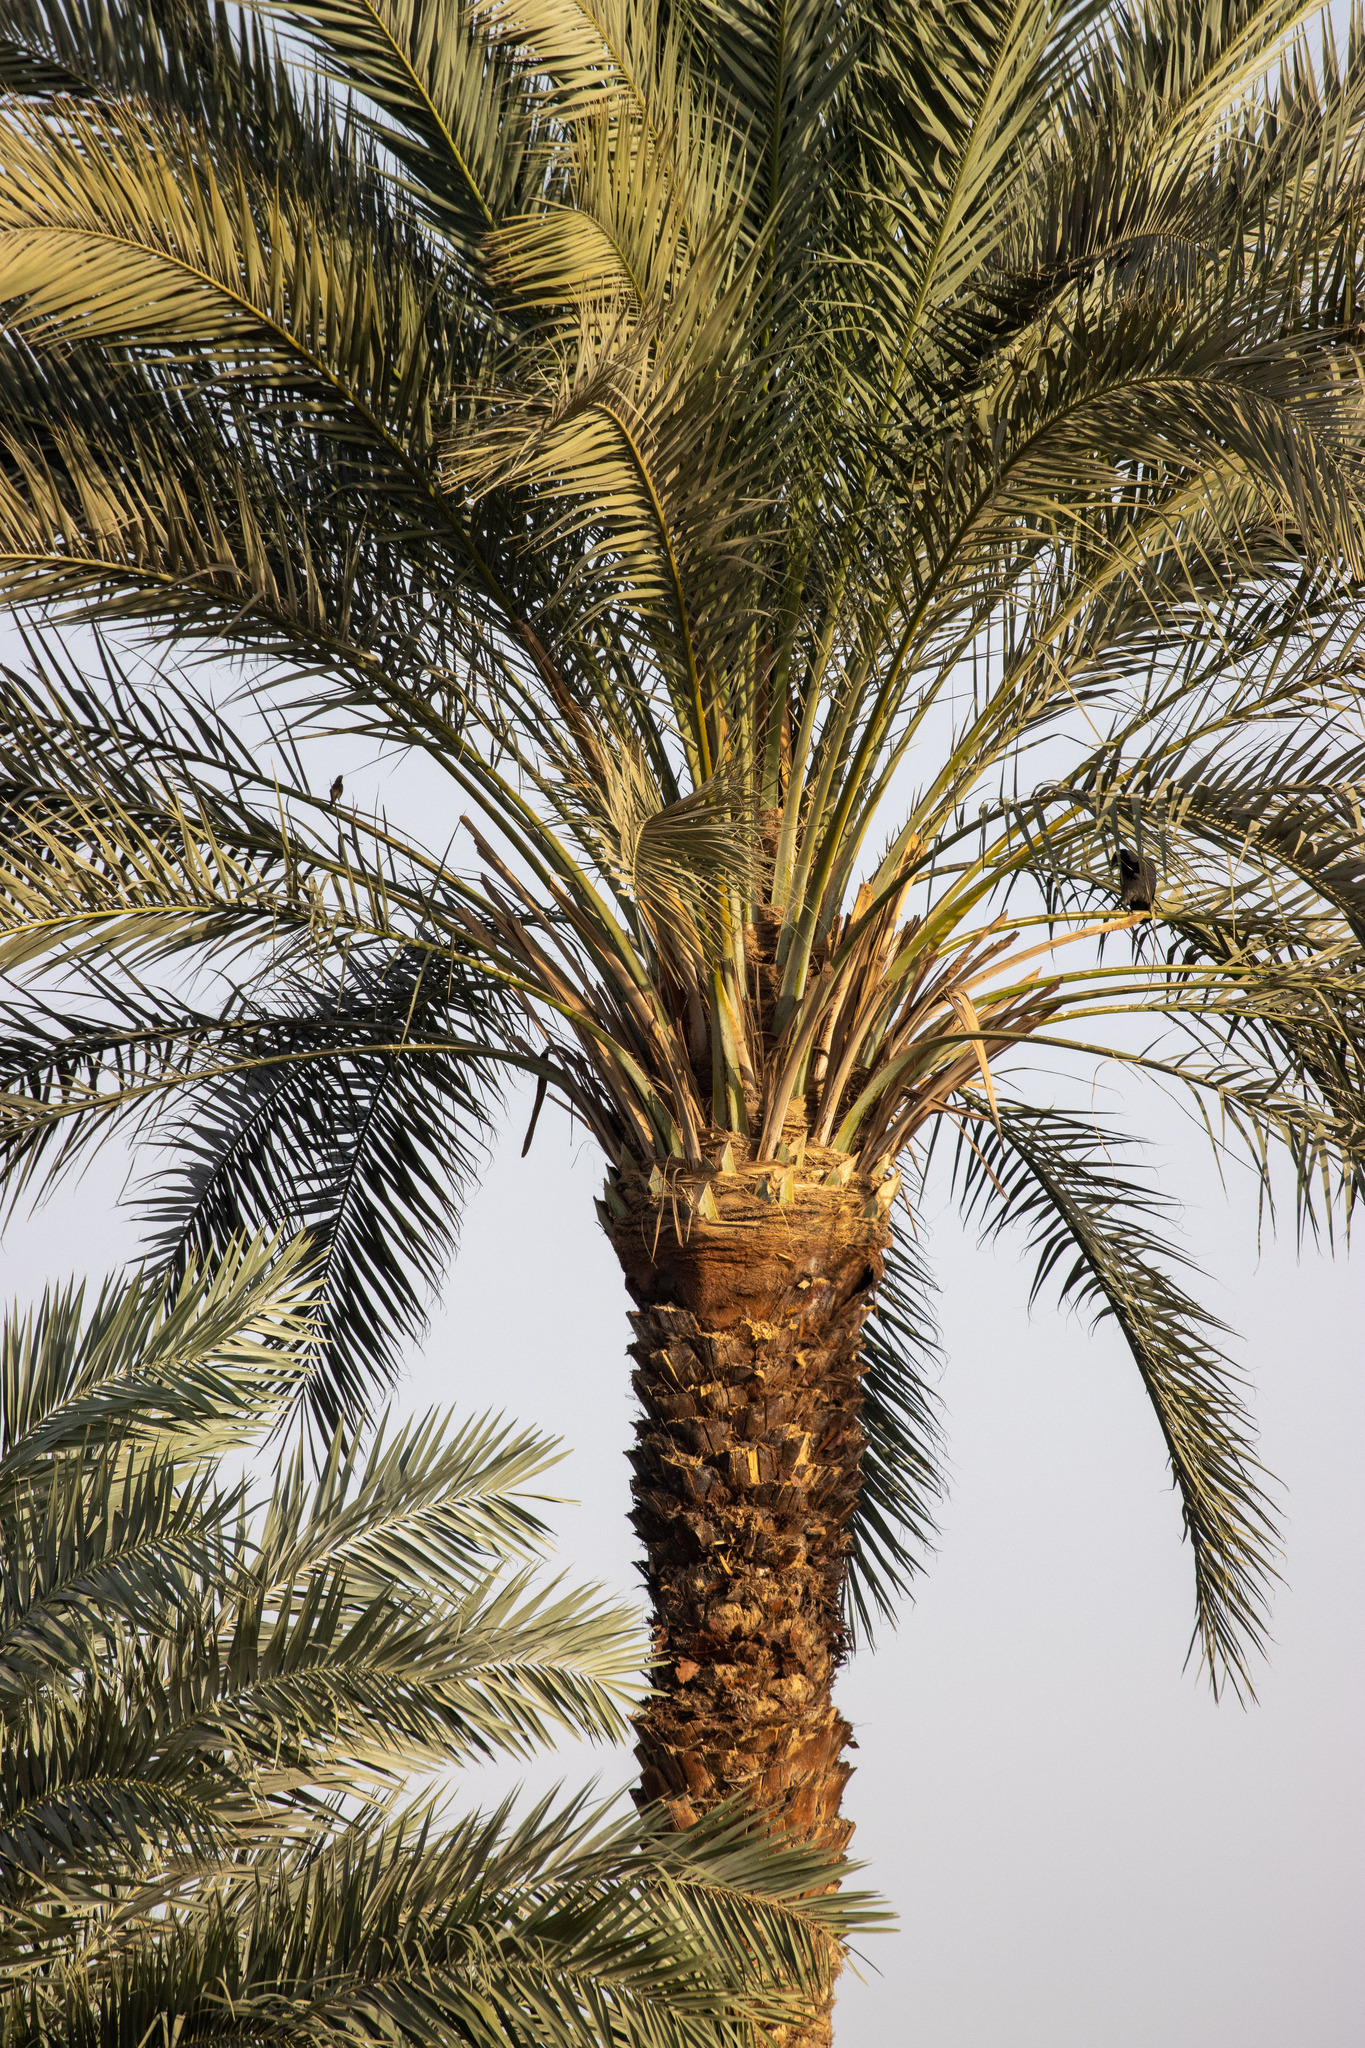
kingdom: Plantae
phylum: Tracheophyta
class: Liliopsida
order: Arecales
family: Arecaceae
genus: Phoenix
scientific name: Phoenix dactylifera
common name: Date palm
